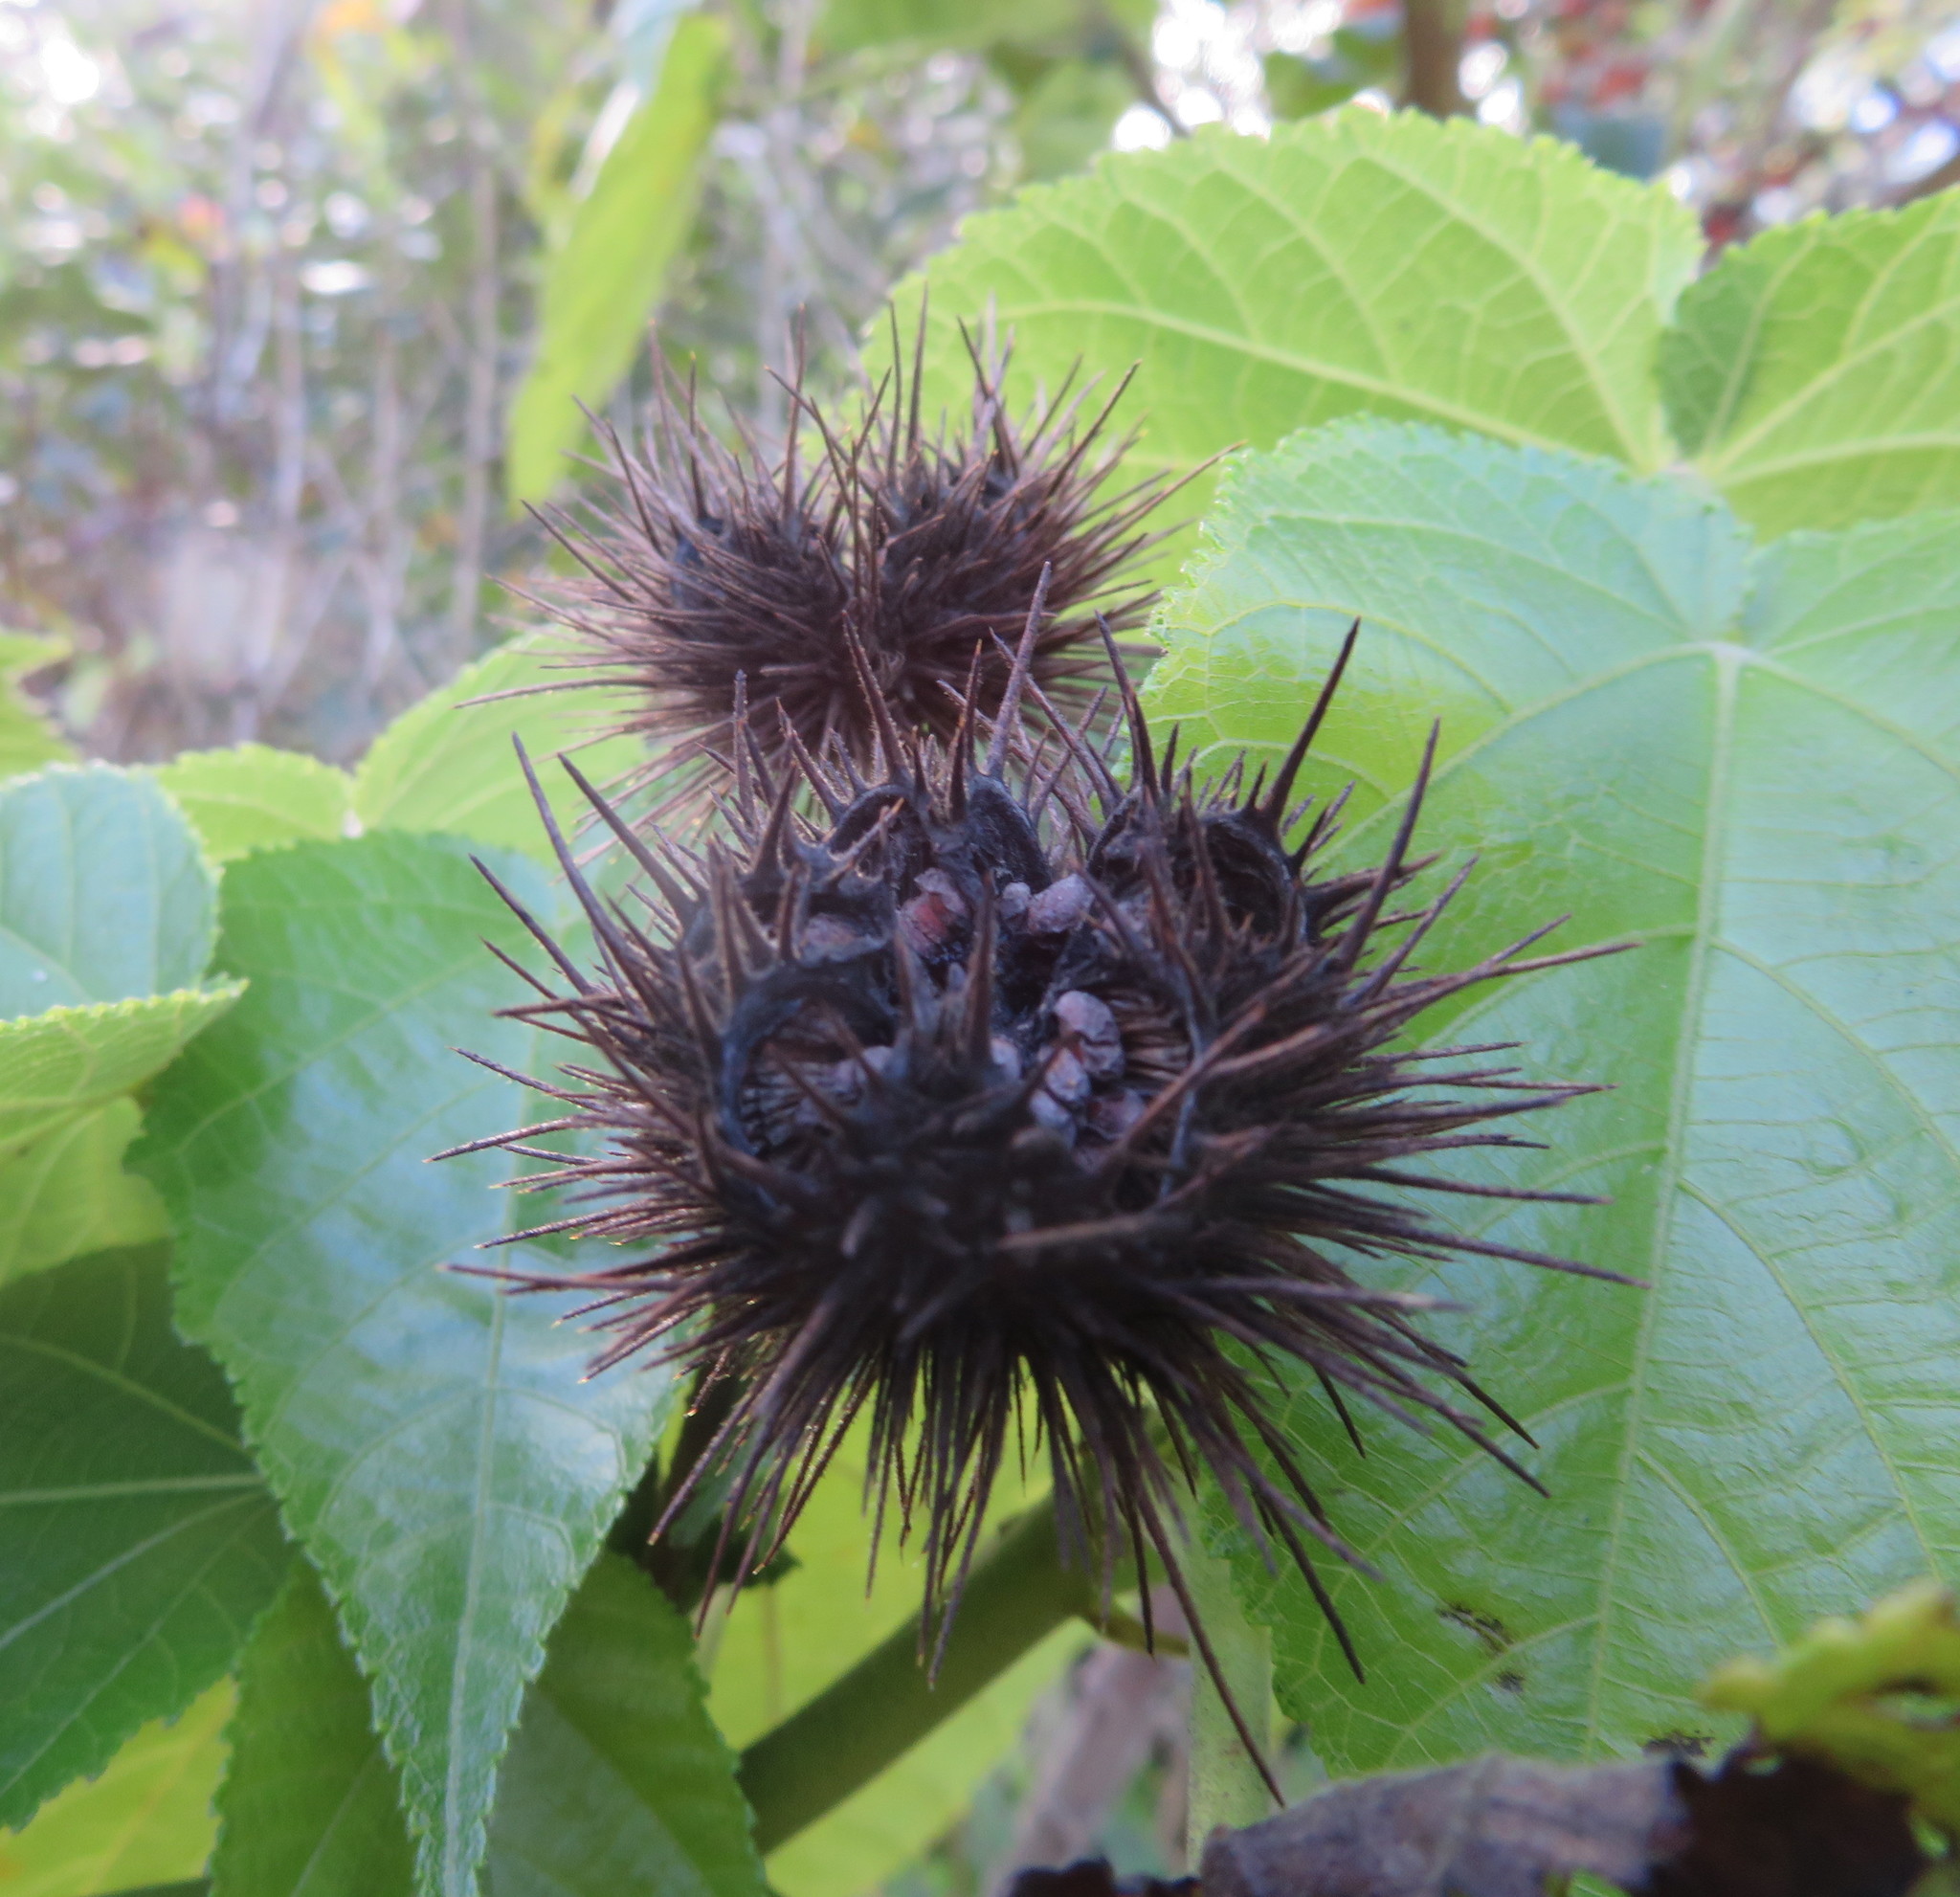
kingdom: Plantae
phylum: Tracheophyta
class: Magnoliopsida
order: Malvales
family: Malvaceae
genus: Entelea
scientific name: Entelea arborescens
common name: New zealand-mulberry
